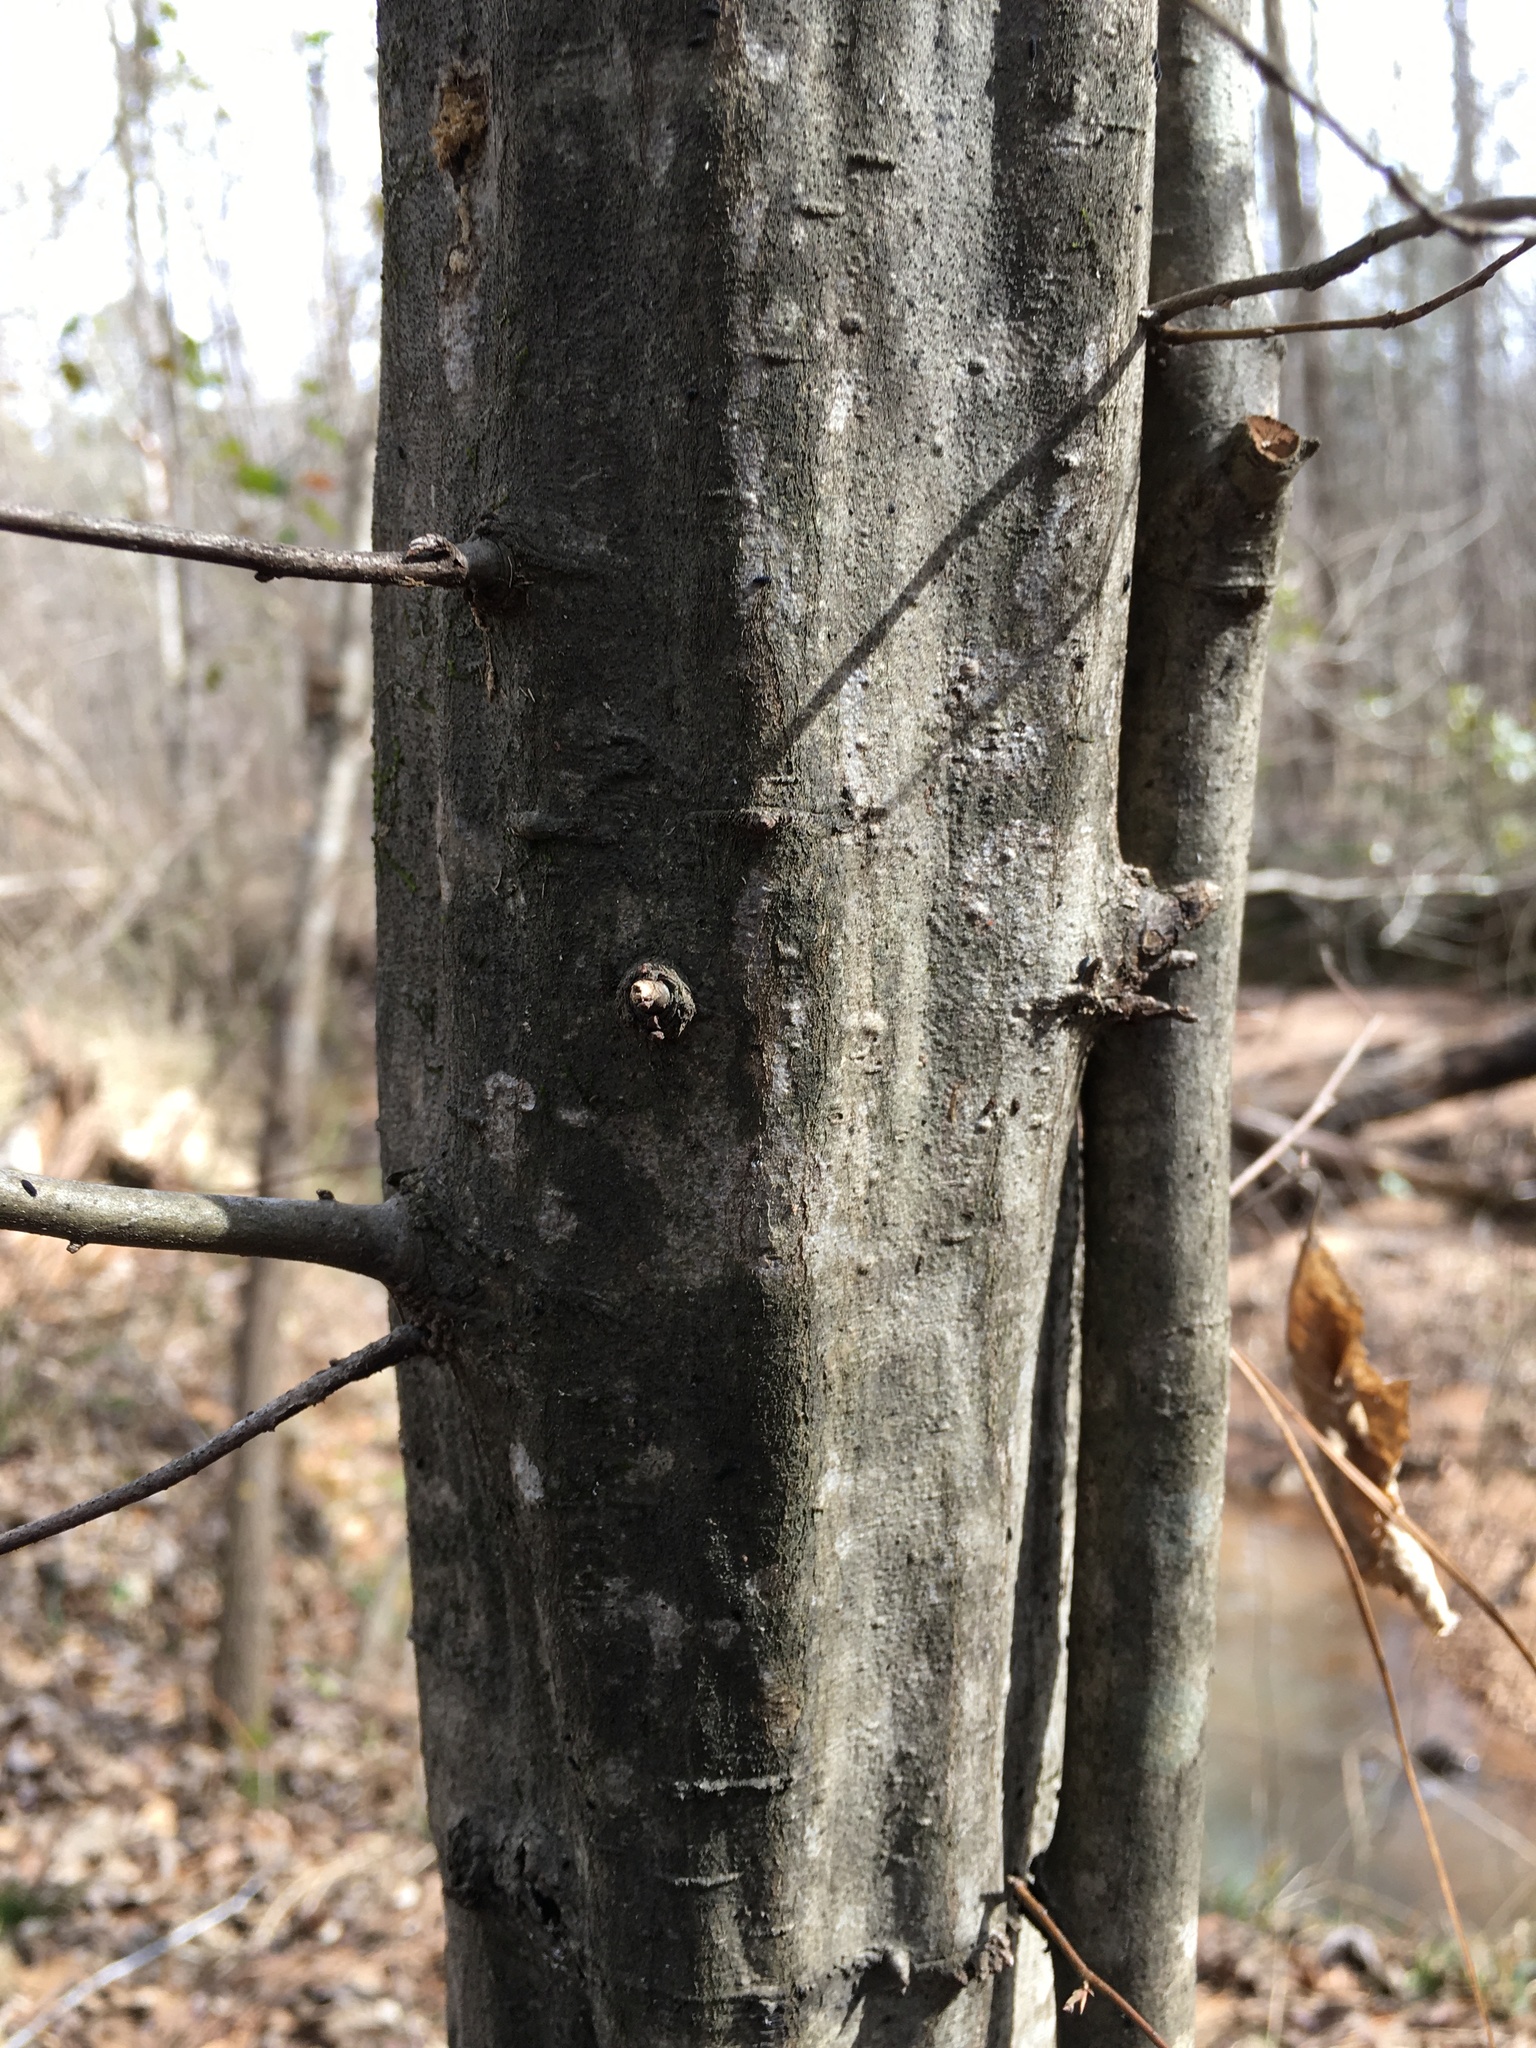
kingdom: Plantae
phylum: Tracheophyta
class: Magnoliopsida
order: Fagales
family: Betulaceae
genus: Carpinus
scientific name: Carpinus caroliniana
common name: American hornbeam
